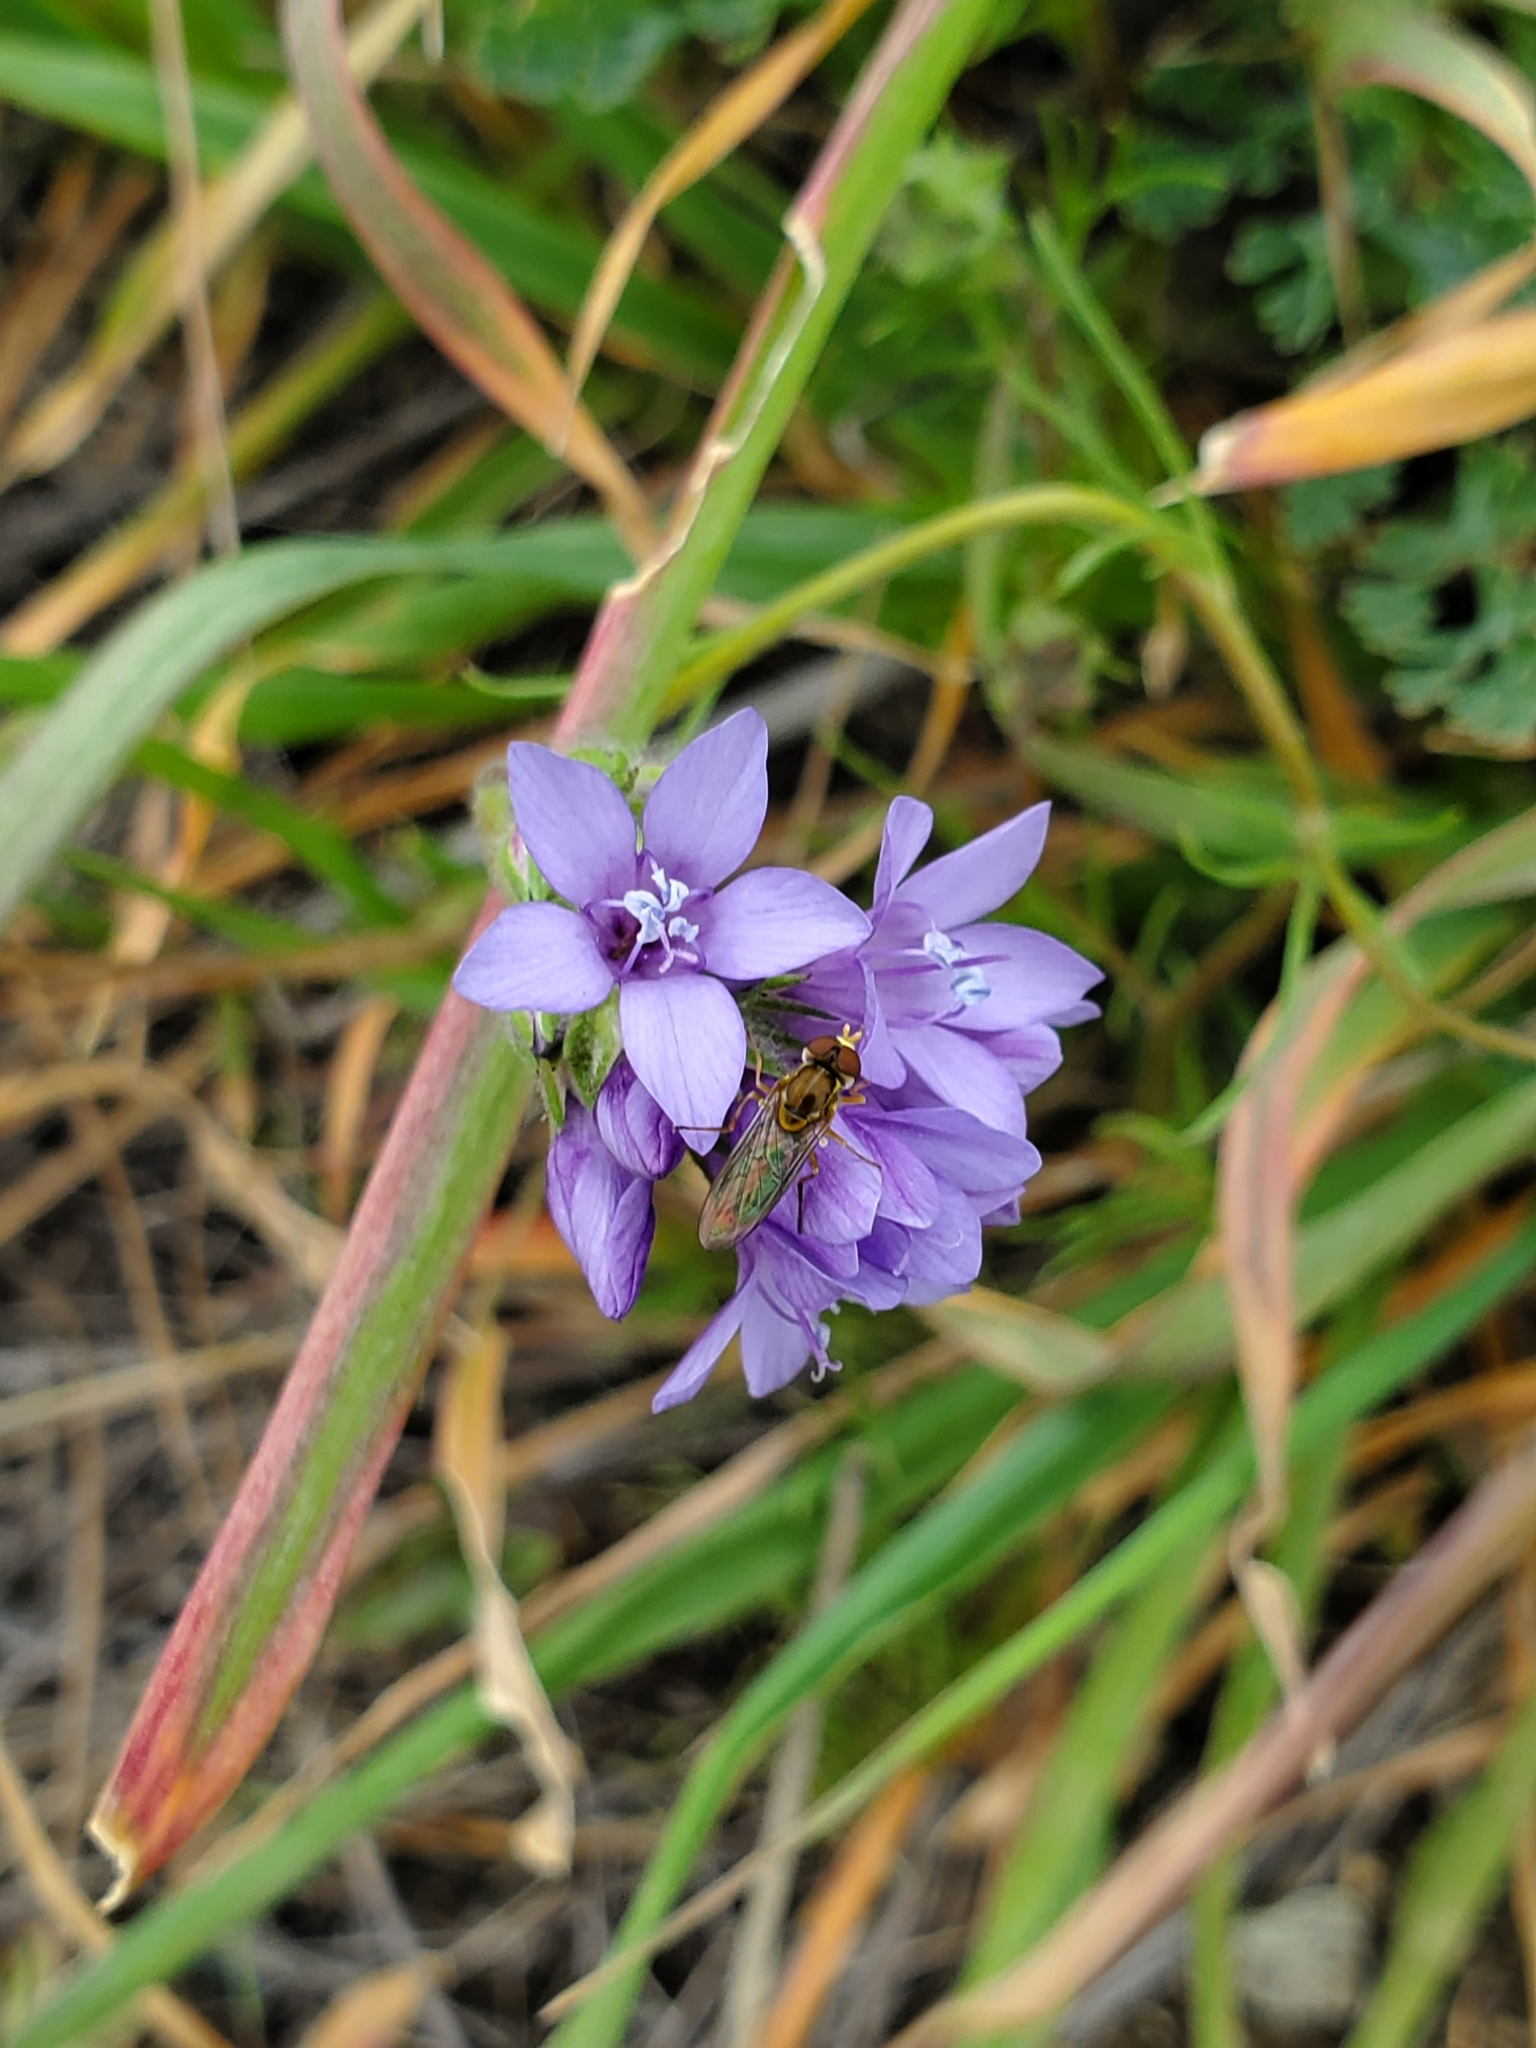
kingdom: Plantae
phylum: Tracheophyta
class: Magnoliopsida
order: Ericales
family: Polemoniaceae
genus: Gilia
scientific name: Gilia achilleifolia
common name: California gily-flower
